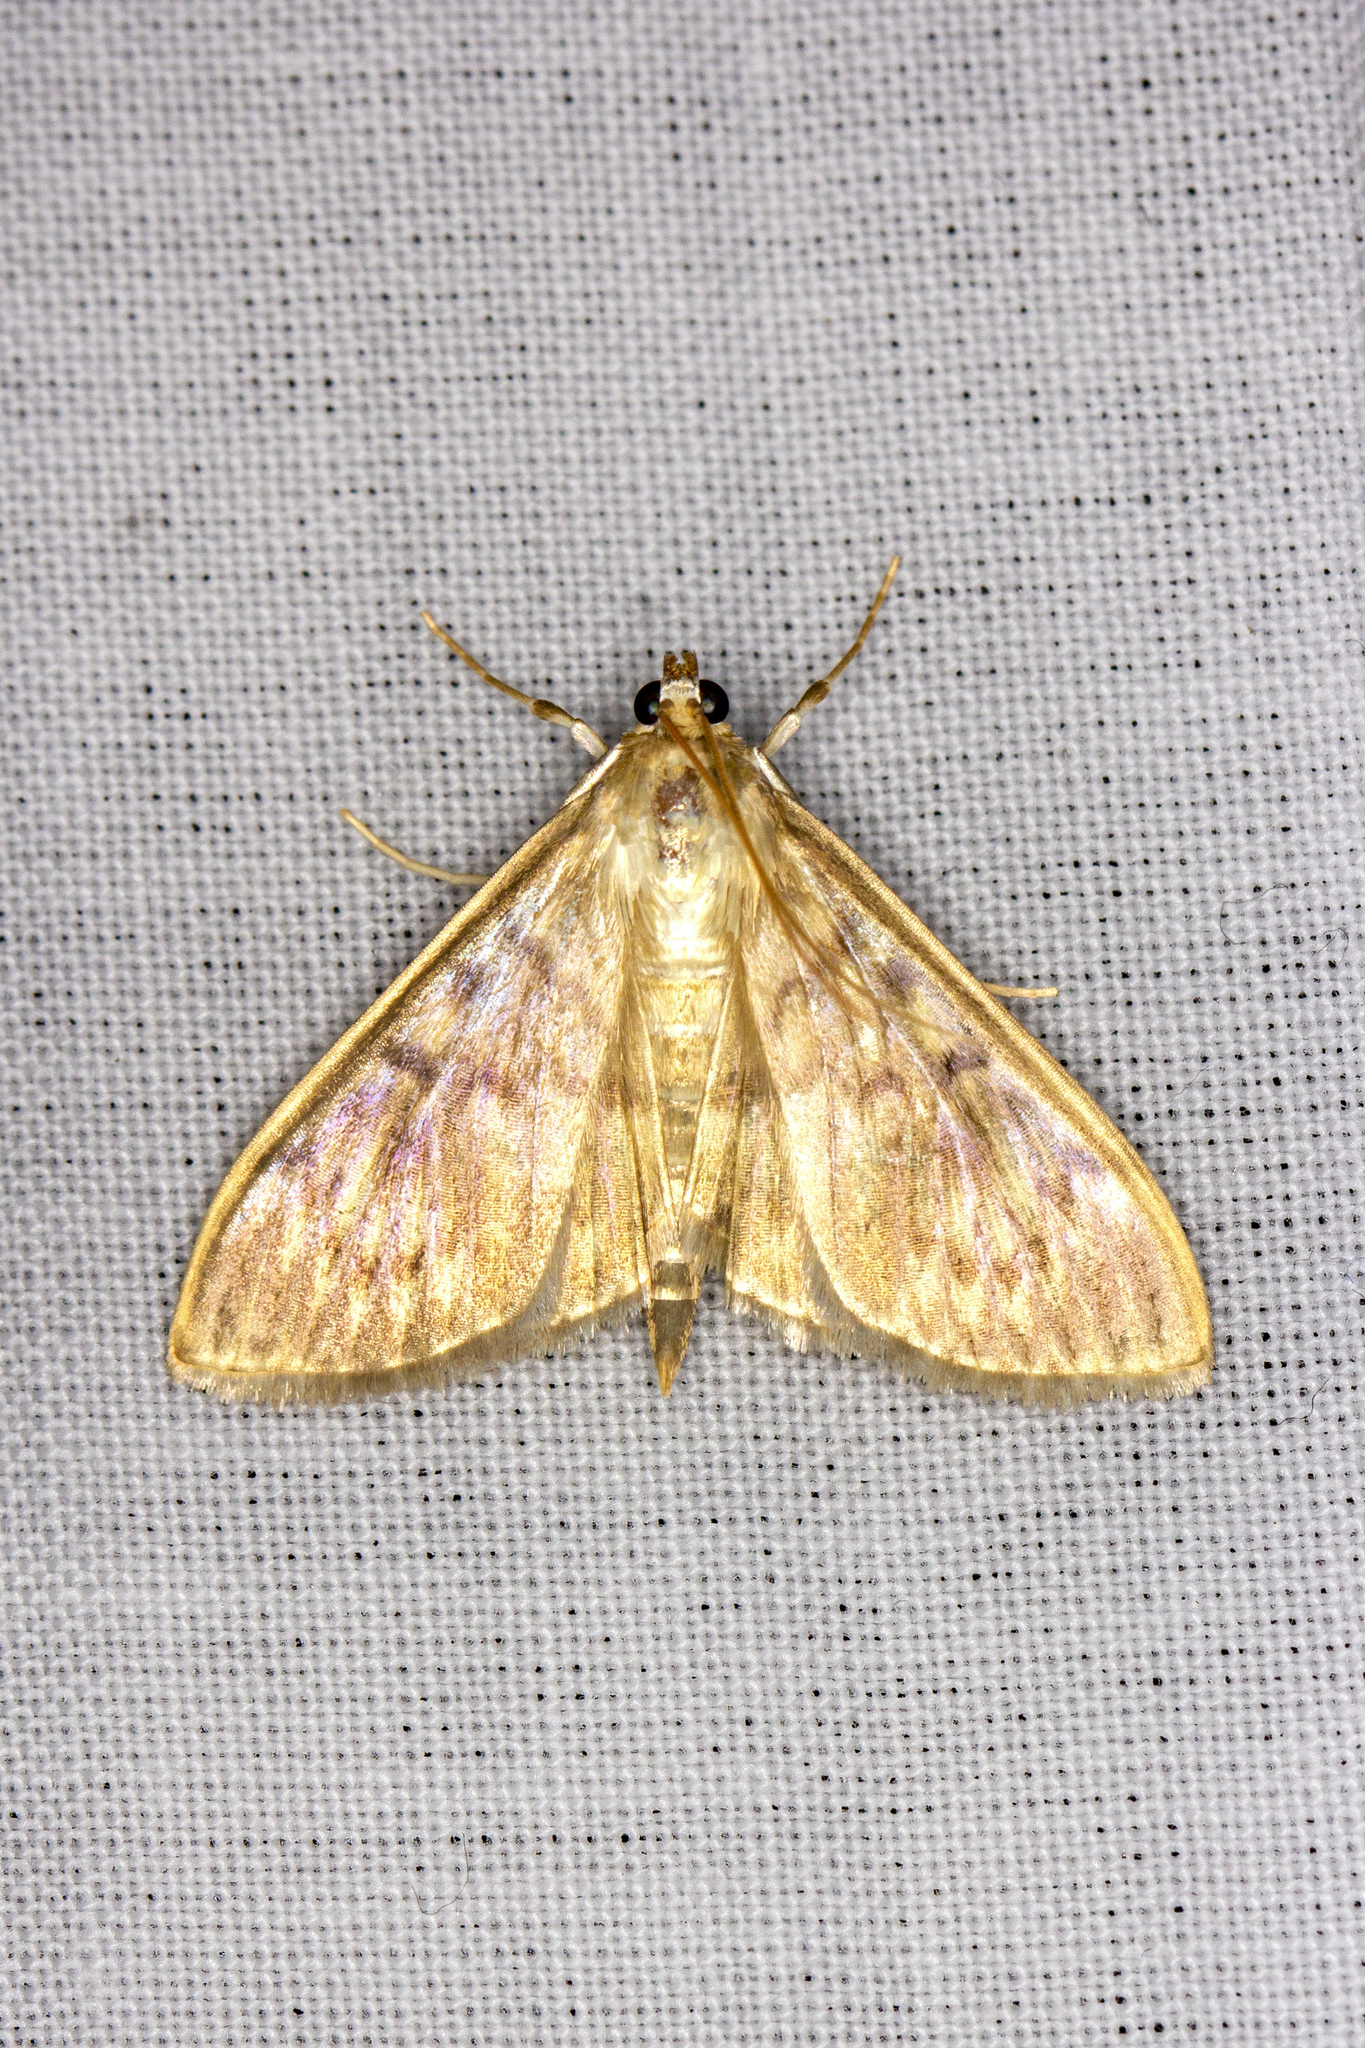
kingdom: Animalia
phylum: Arthropoda
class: Insecta
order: Lepidoptera
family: Crambidae
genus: Patania
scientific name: Patania ruralis
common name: Mother of pearl
